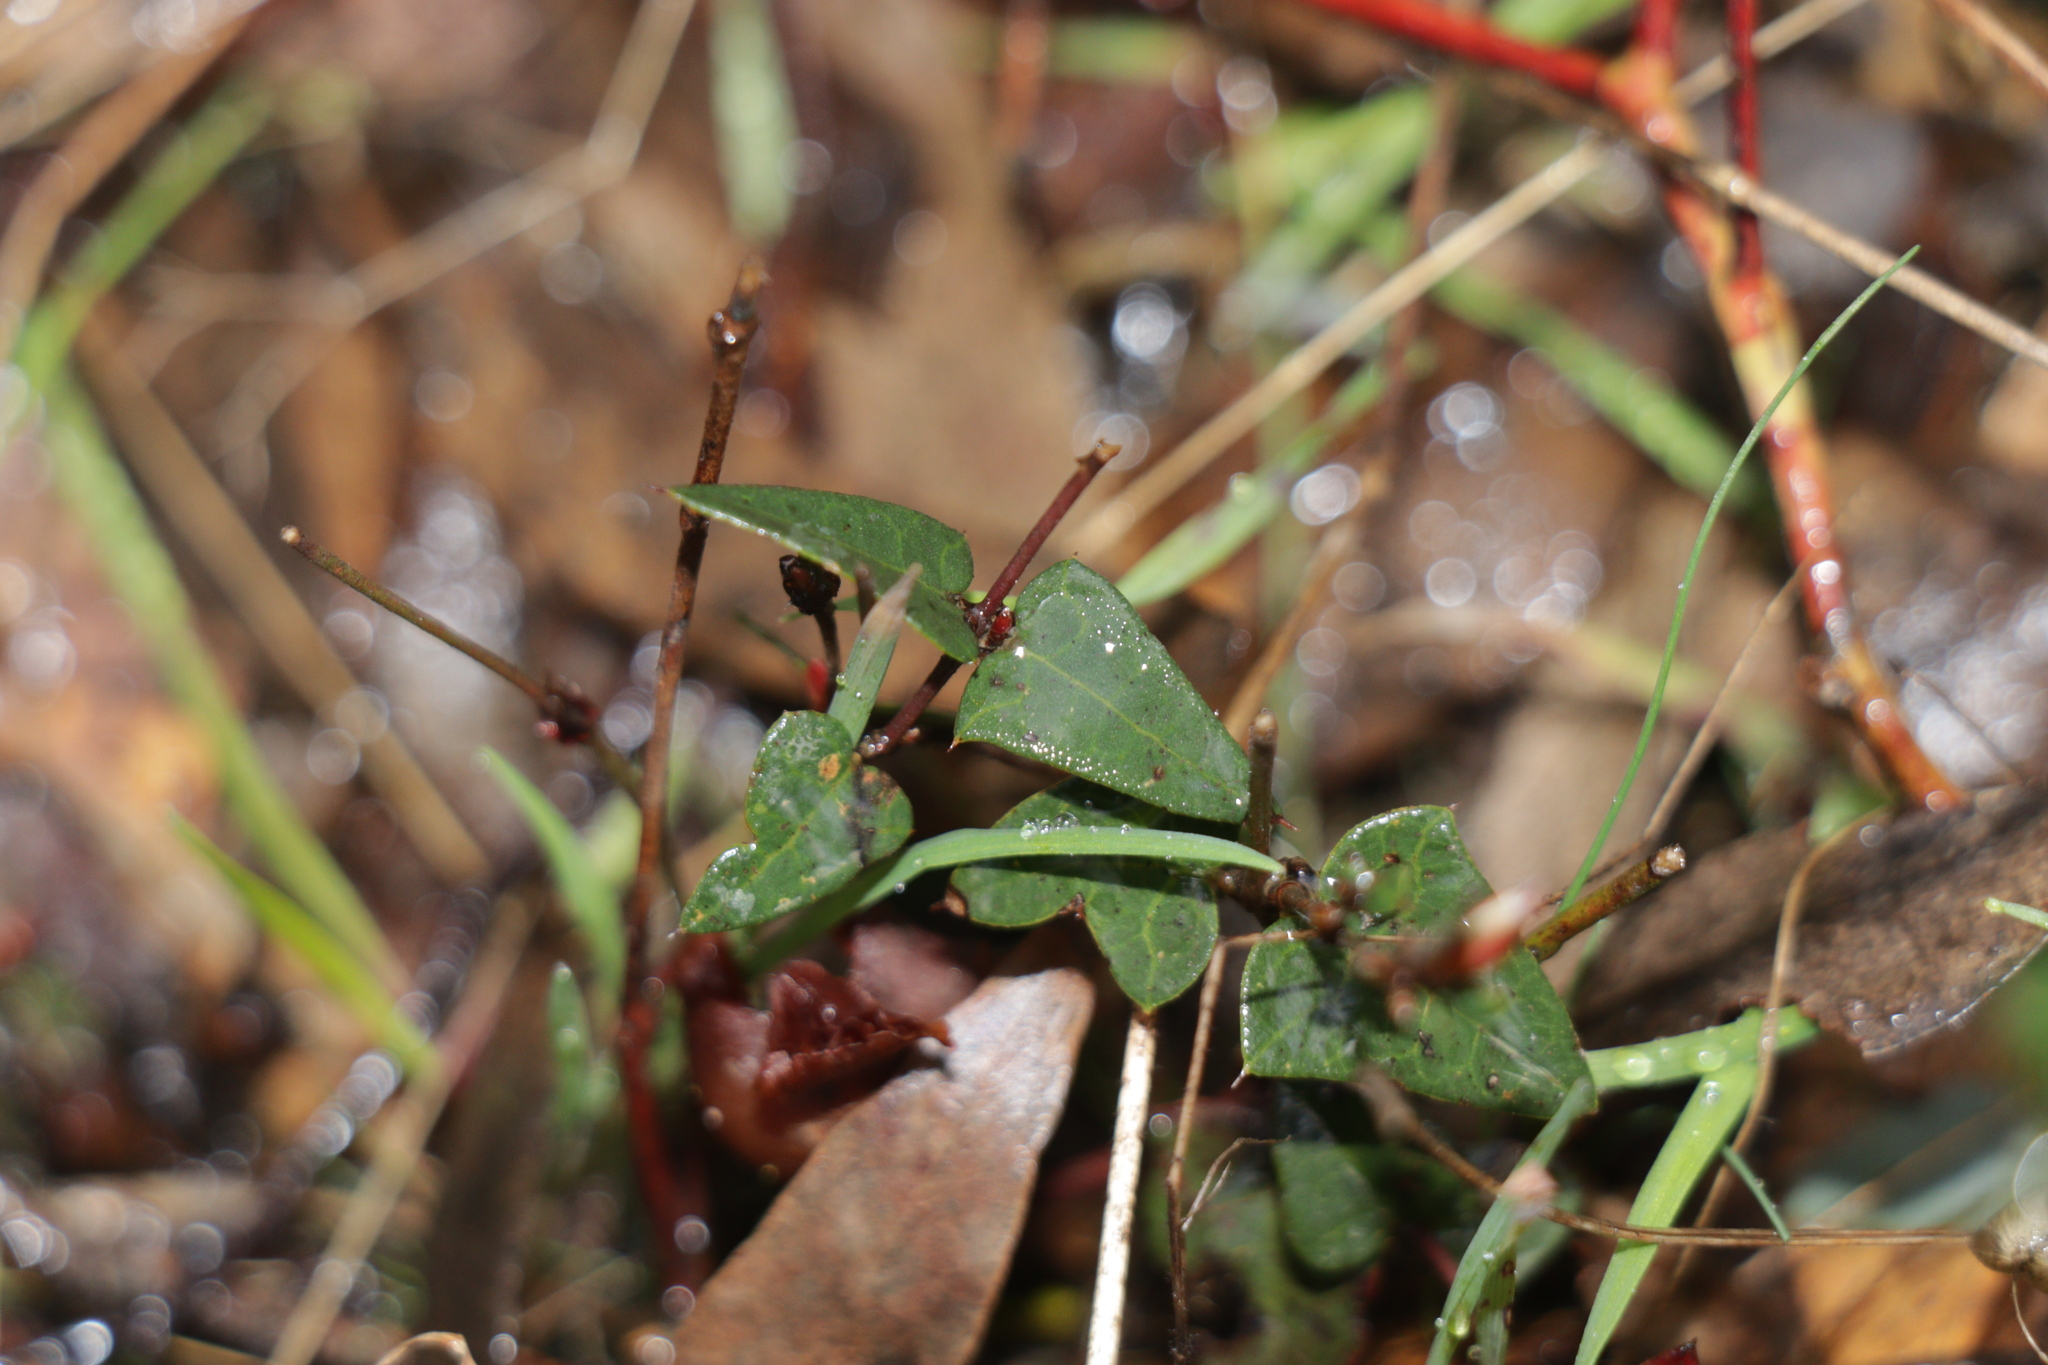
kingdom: Plantae
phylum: Tracheophyta
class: Magnoliopsida
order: Fabales
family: Fabaceae
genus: Platylobium
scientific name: Platylobium obtusangulum
